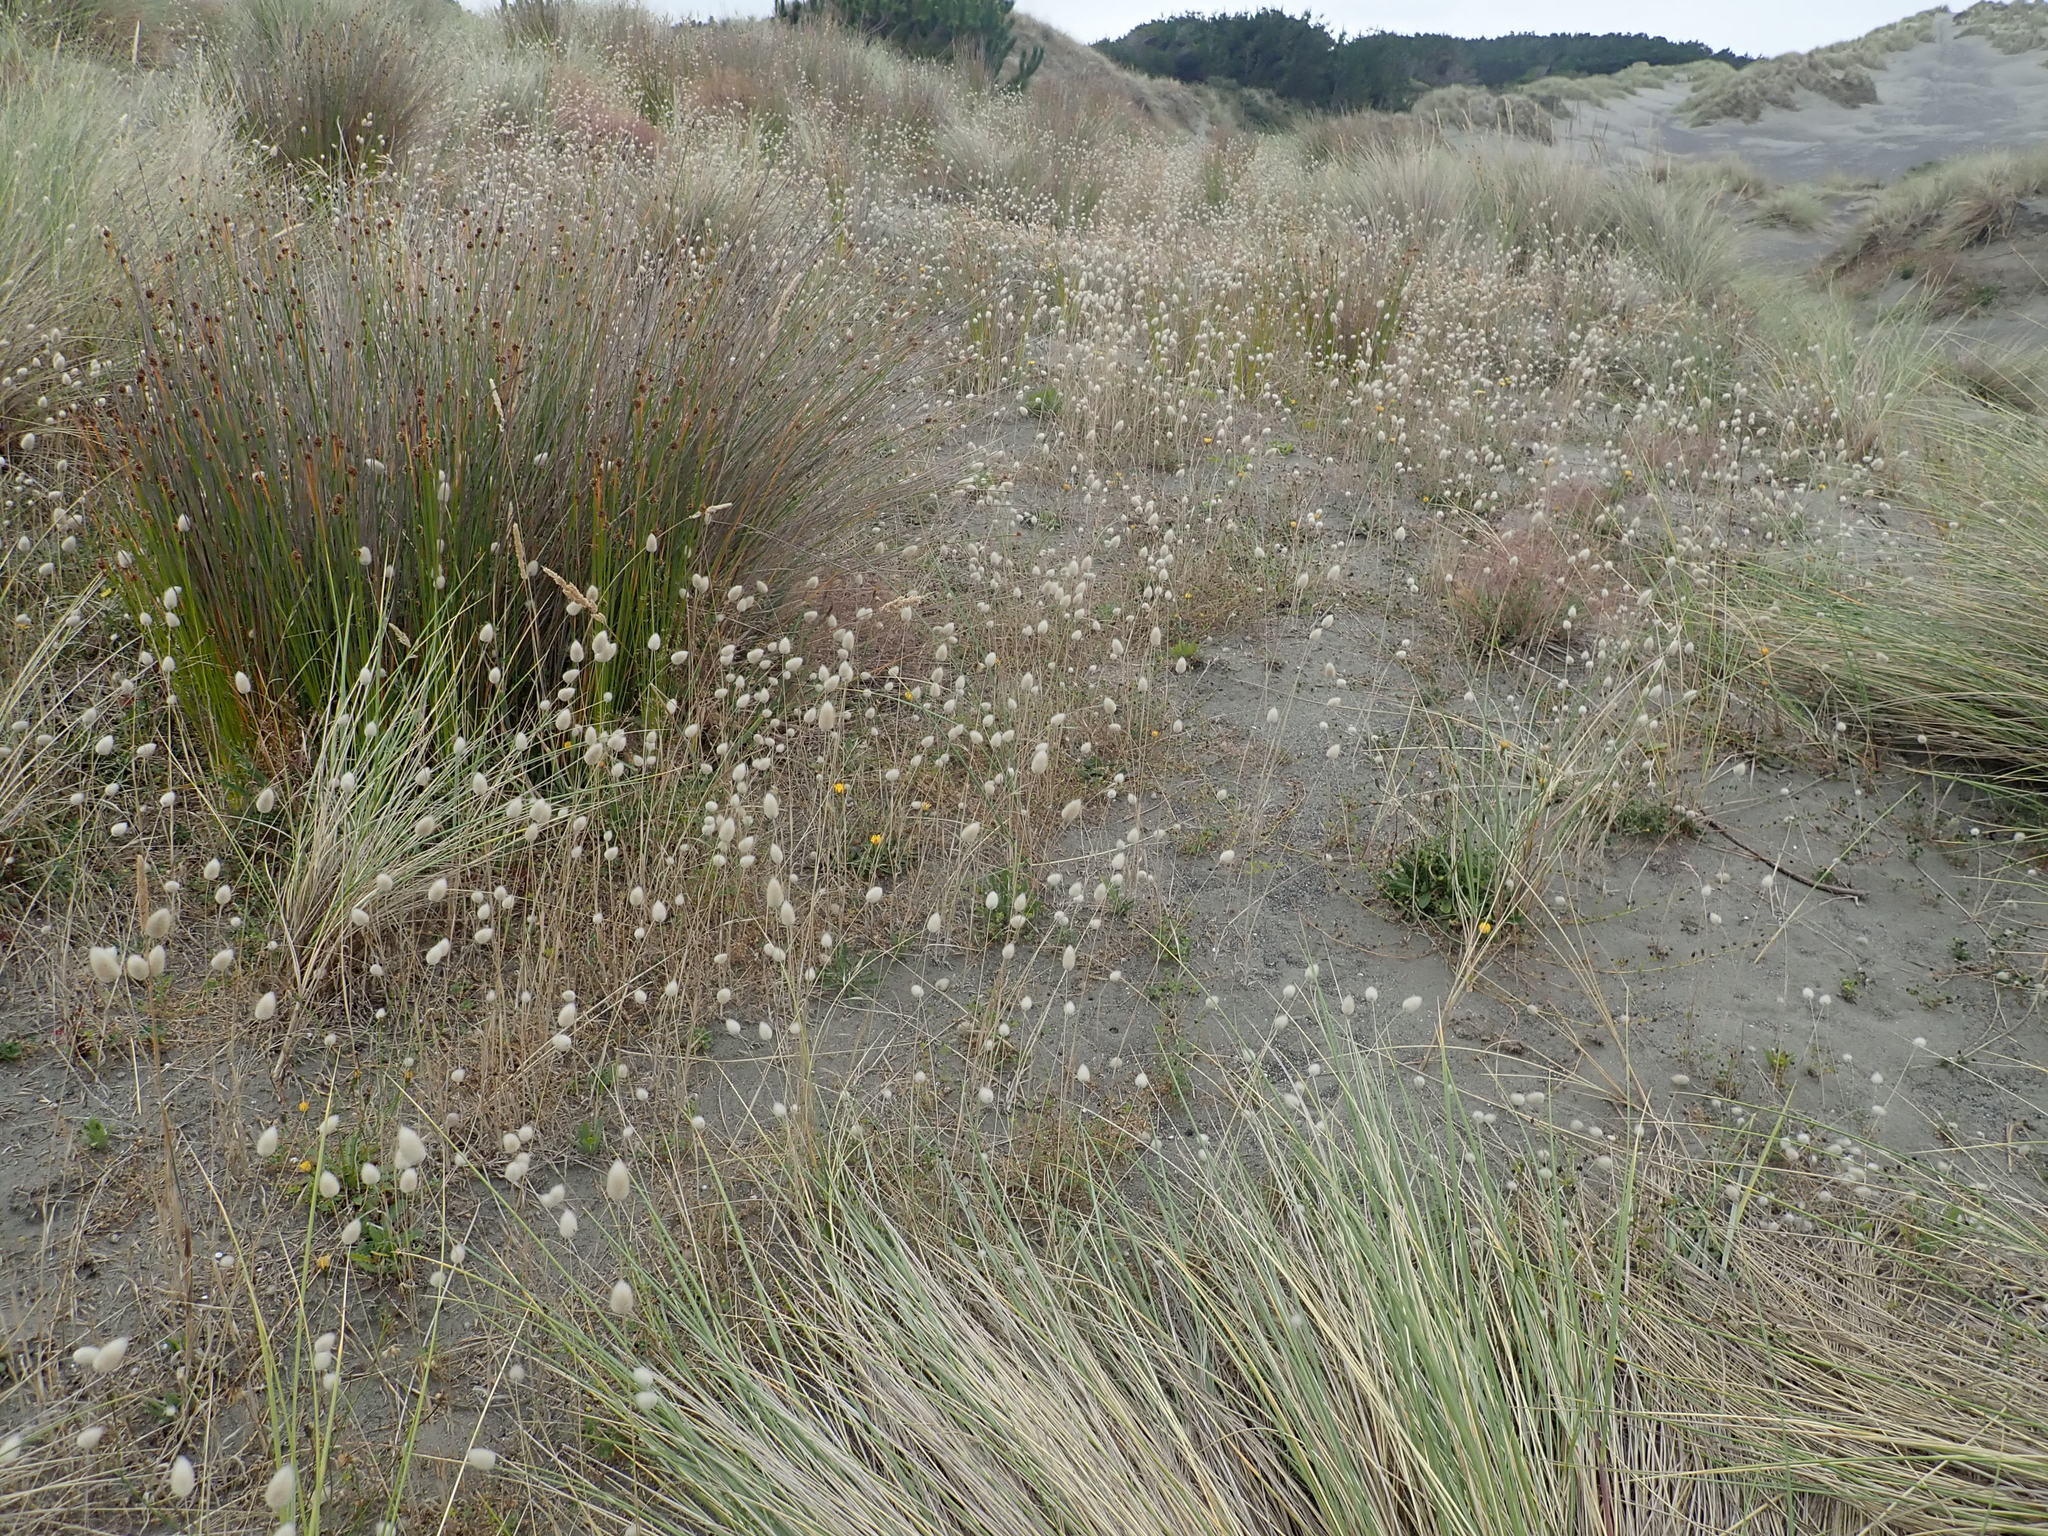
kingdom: Plantae
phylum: Tracheophyta
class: Liliopsida
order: Poales
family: Poaceae
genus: Lagurus
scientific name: Lagurus ovatus
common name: Hare's-tail
